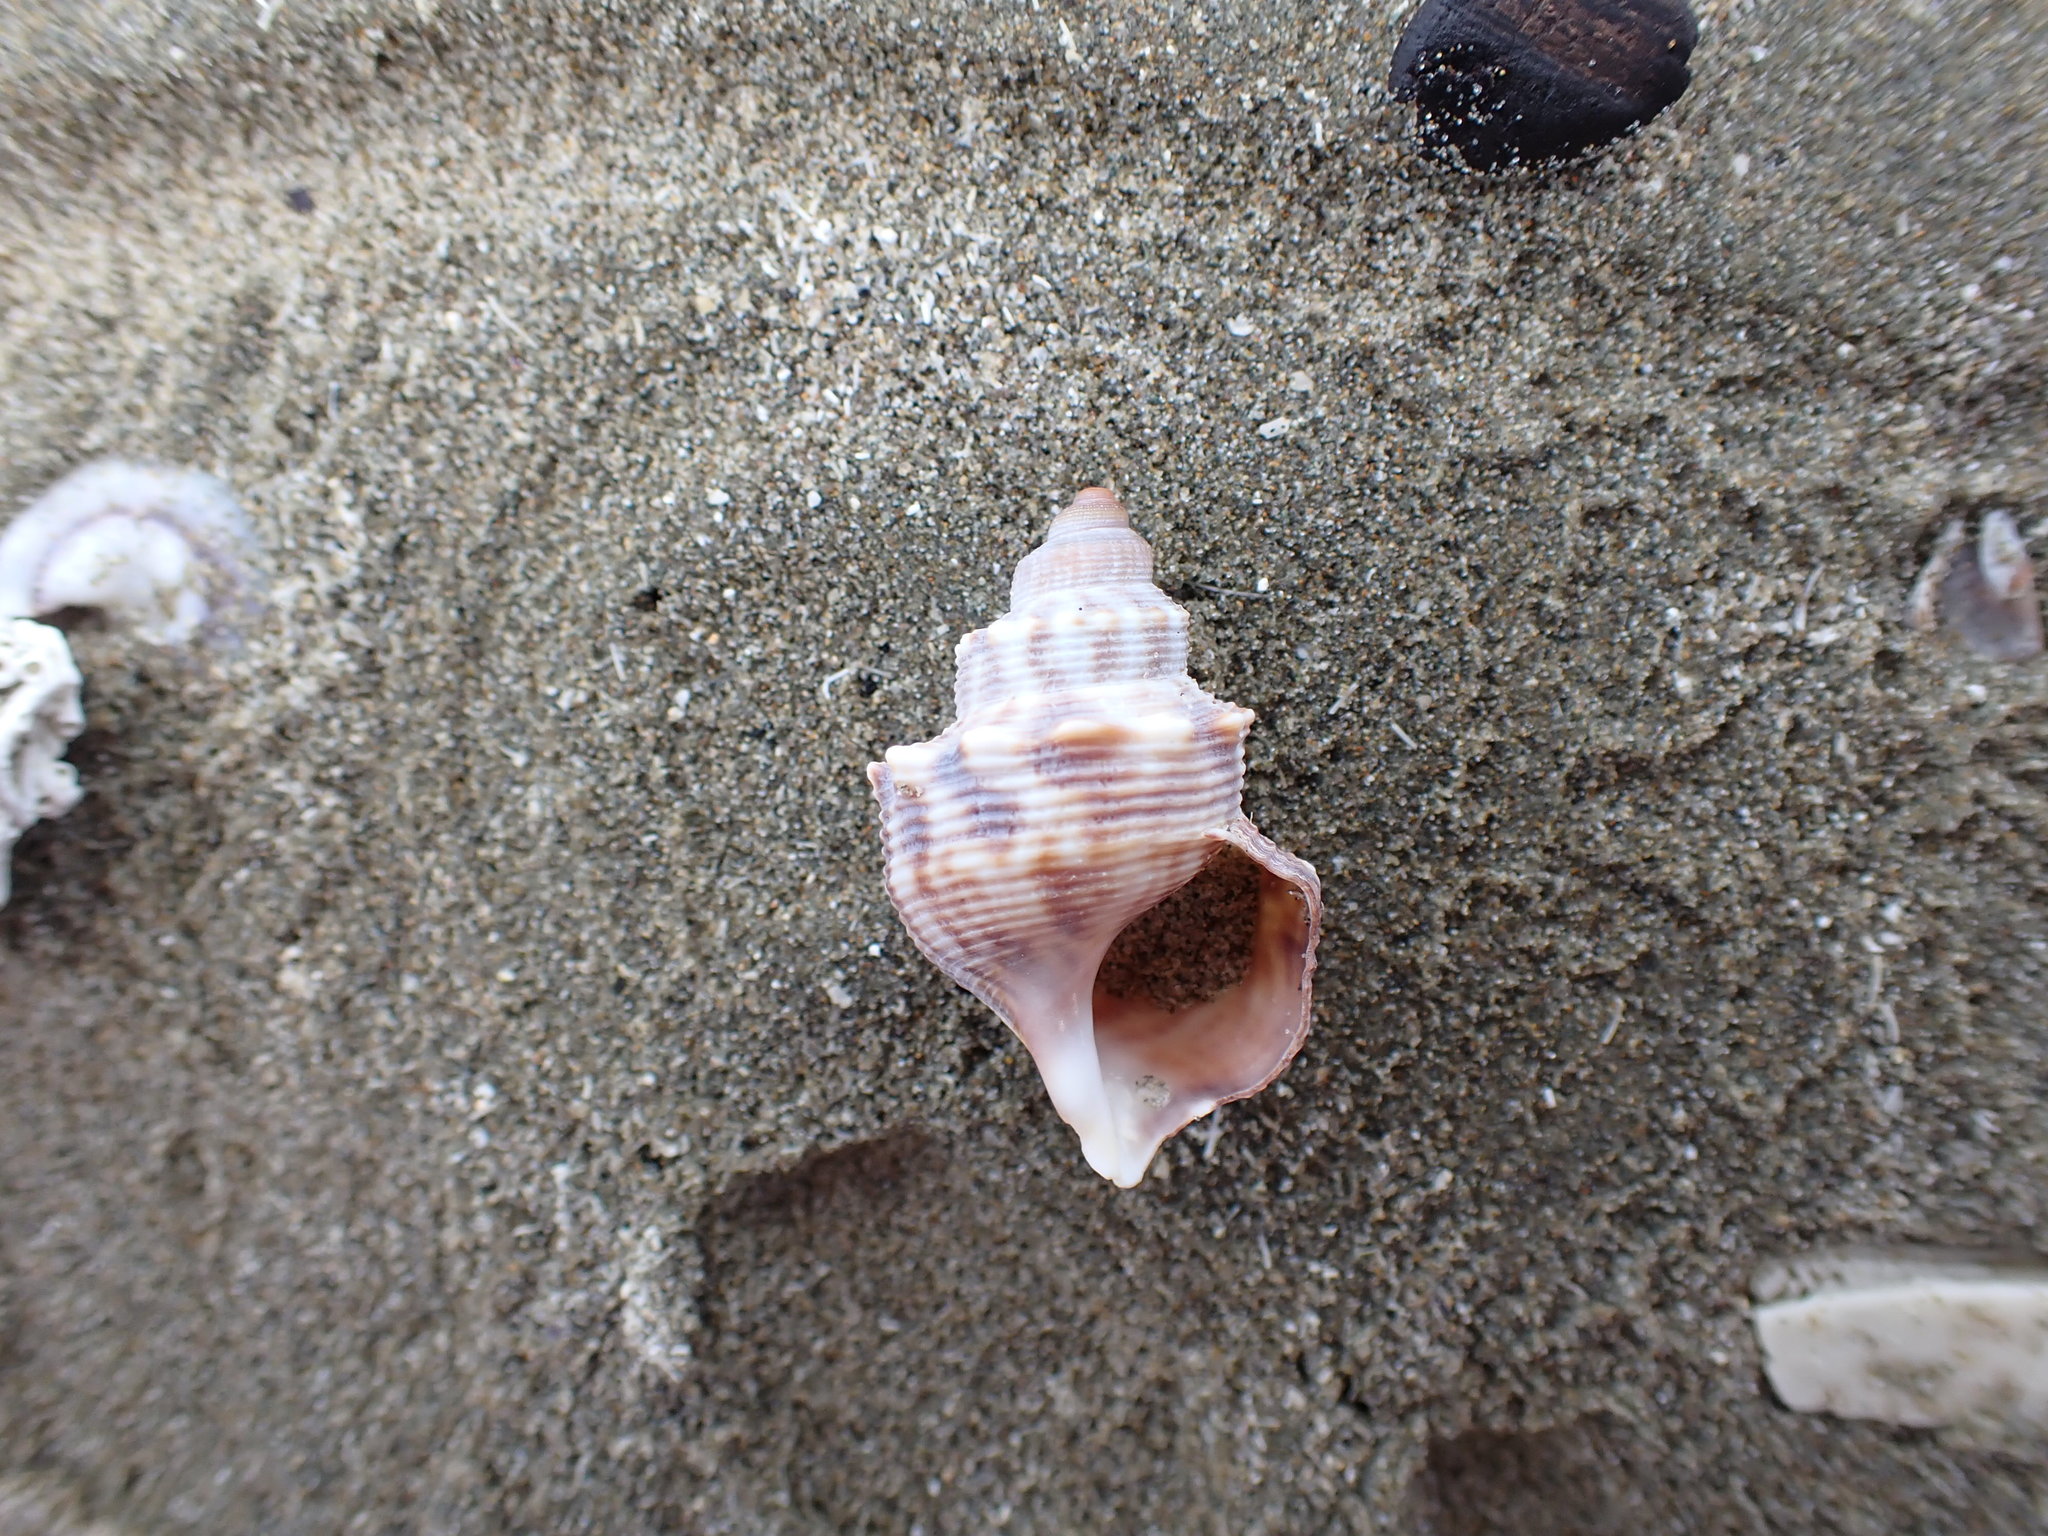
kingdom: Animalia
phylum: Mollusca
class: Gastropoda
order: Littorinimorpha
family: Struthiolariidae
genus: Struthiolaria
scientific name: Struthiolaria papulosa
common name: Large ostrich foot
